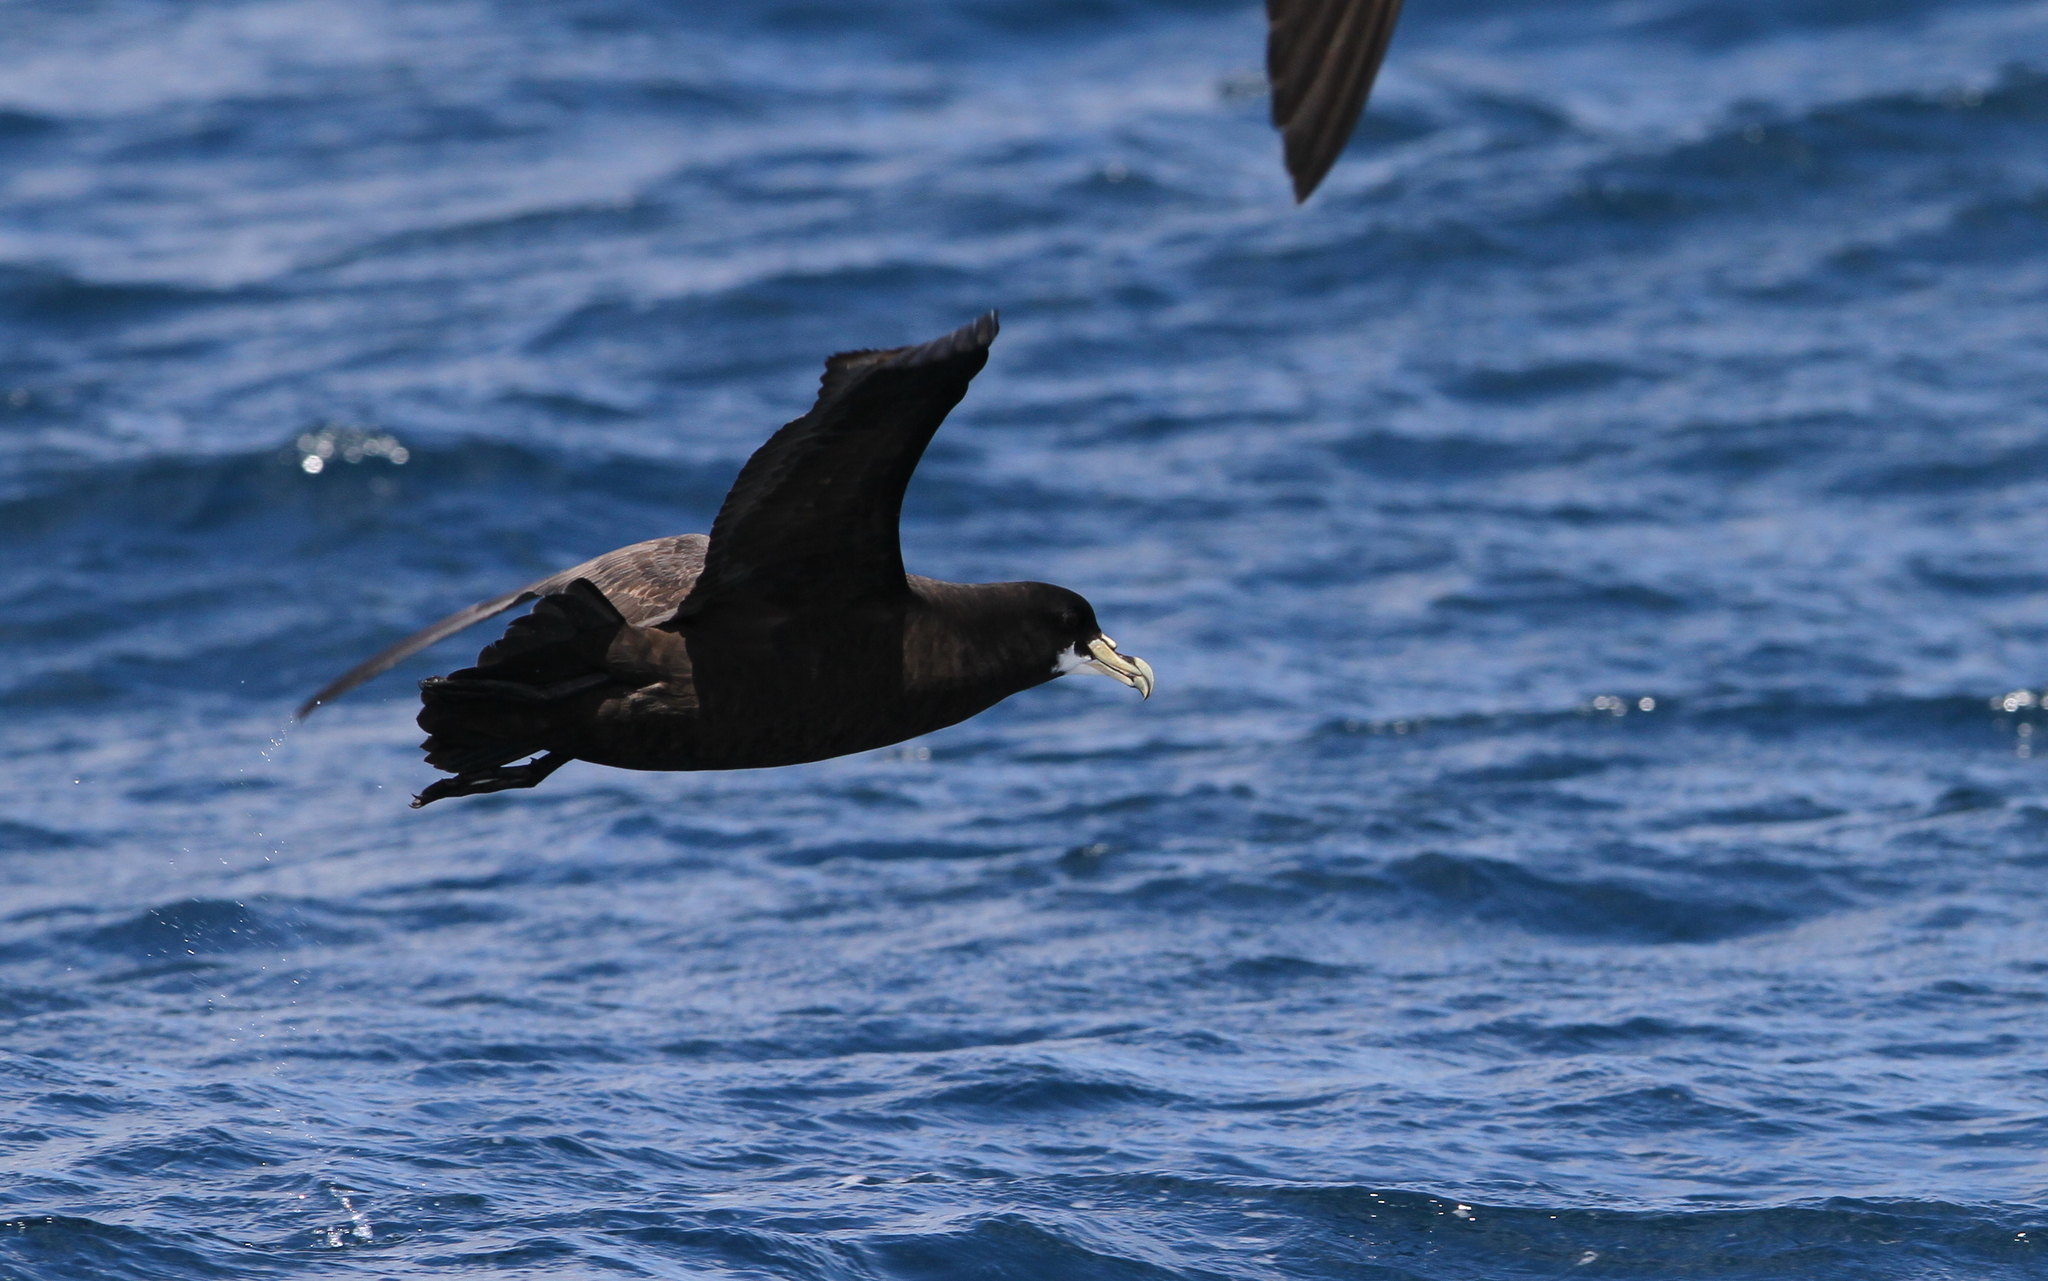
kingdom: Animalia
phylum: Chordata
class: Aves
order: Procellariiformes
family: Procellariidae
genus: Procellaria
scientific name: Procellaria aequinoctialis
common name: White-chinned petrel
